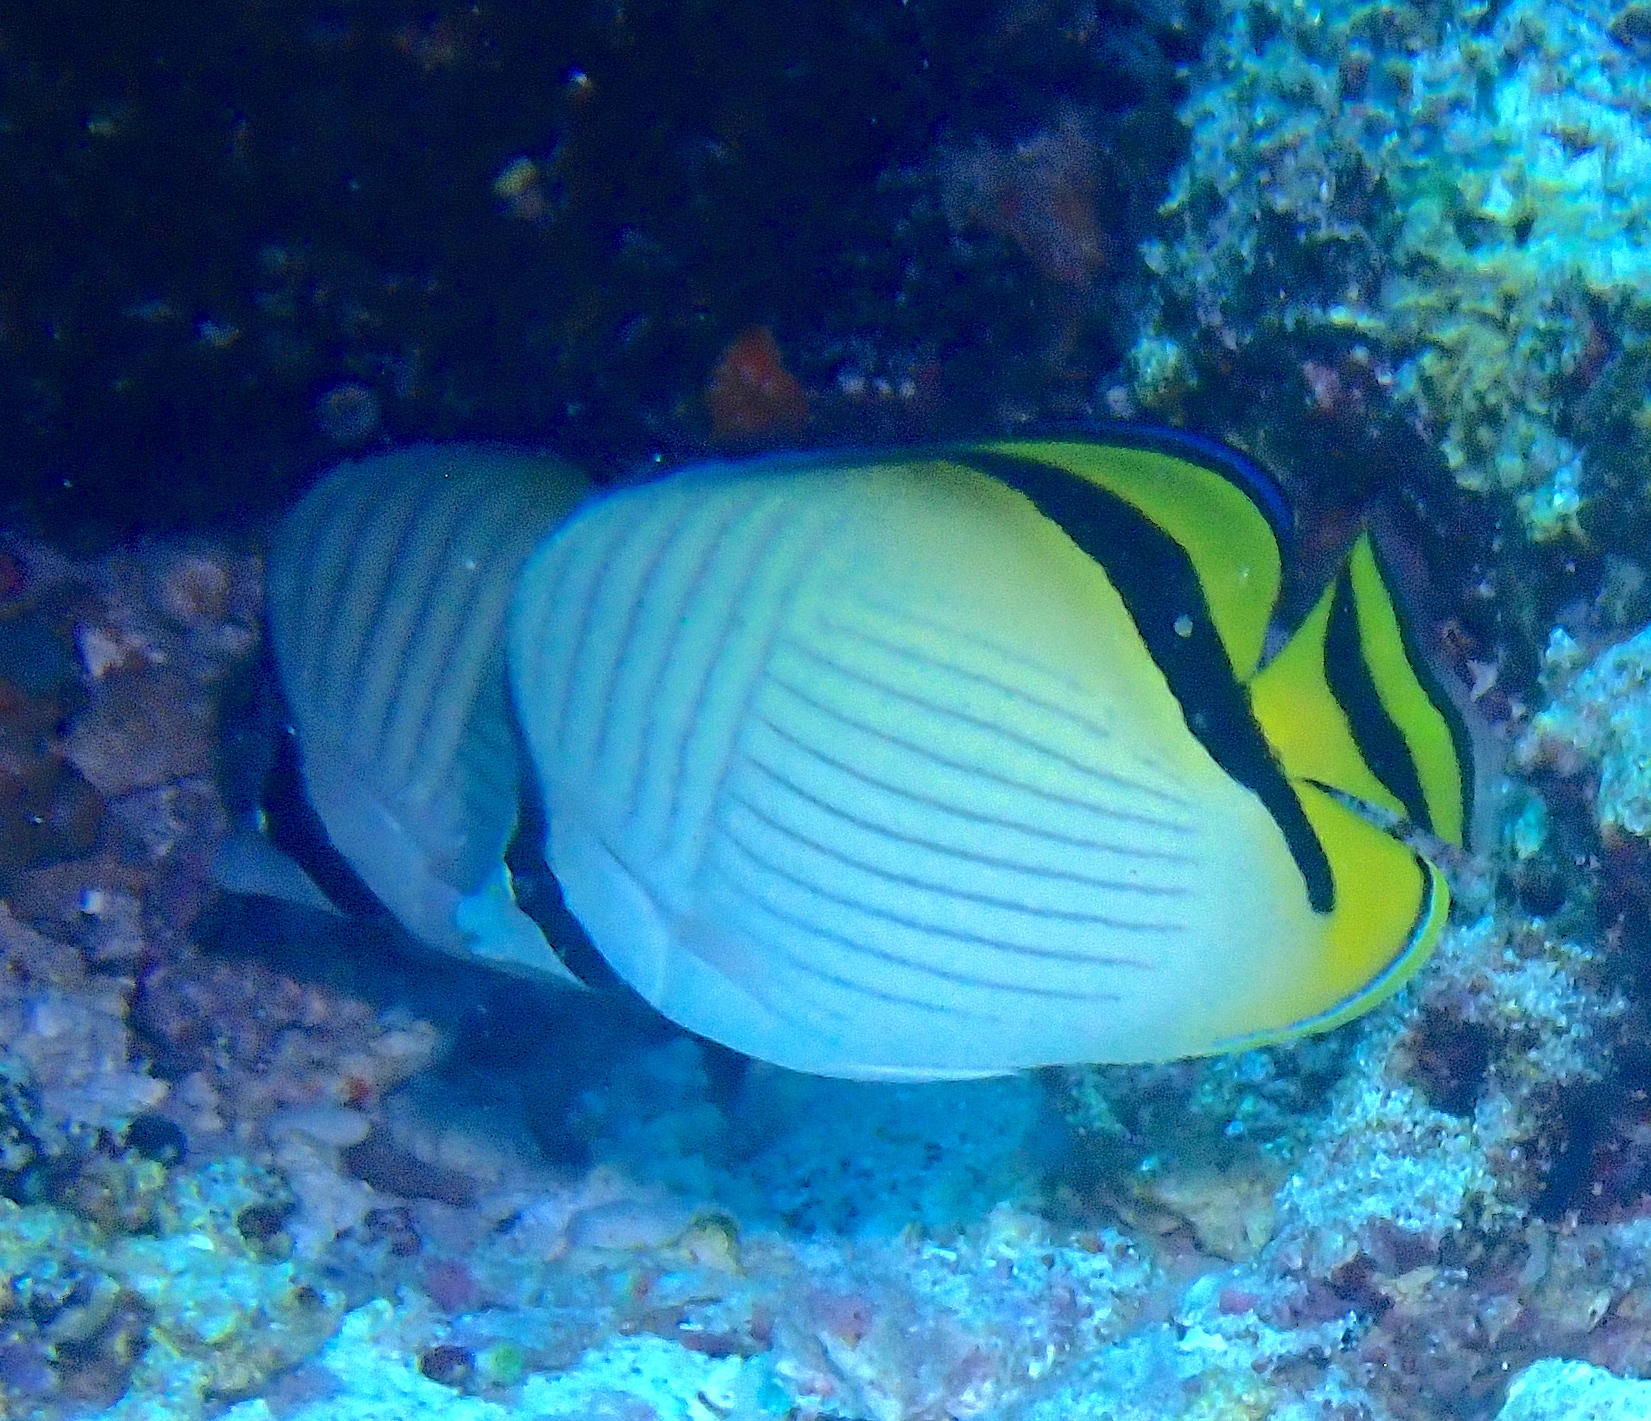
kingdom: Animalia
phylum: Chordata
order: Perciformes
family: Chaetodontidae
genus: Chaetodon
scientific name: Chaetodon vagabundus
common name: Vagabond butterflyfish
